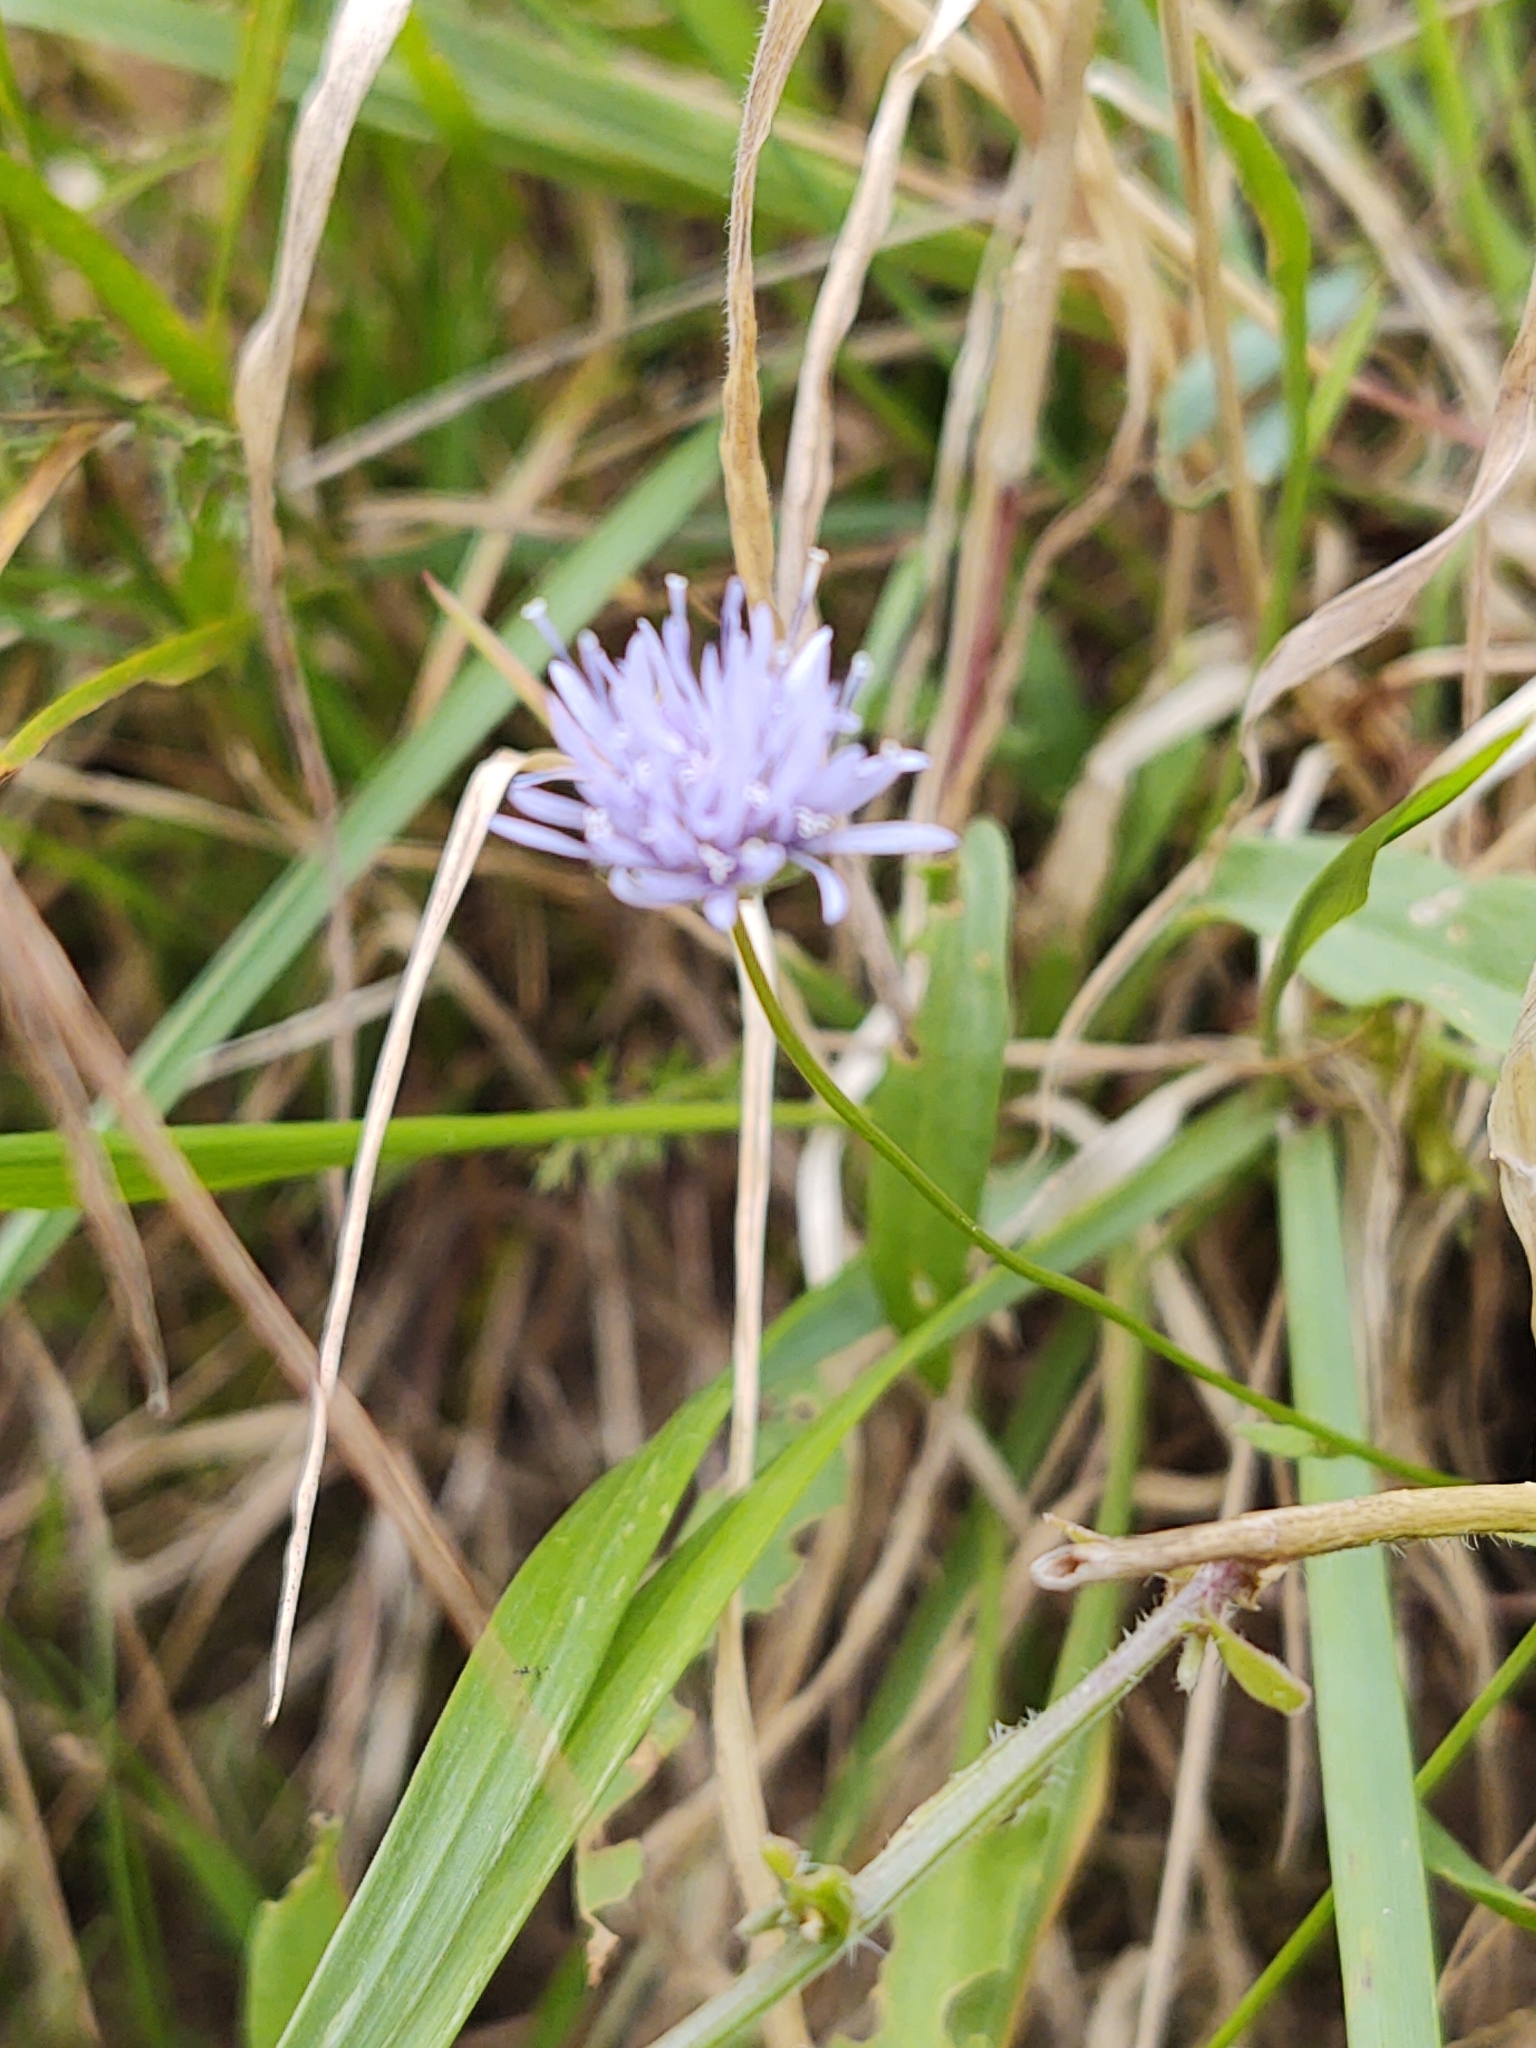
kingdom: Plantae
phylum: Tracheophyta
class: Magnoliopsida
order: Asterales
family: Campanulaceae
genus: Jasione
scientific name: Jasione montana
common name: Sheep's-bit
